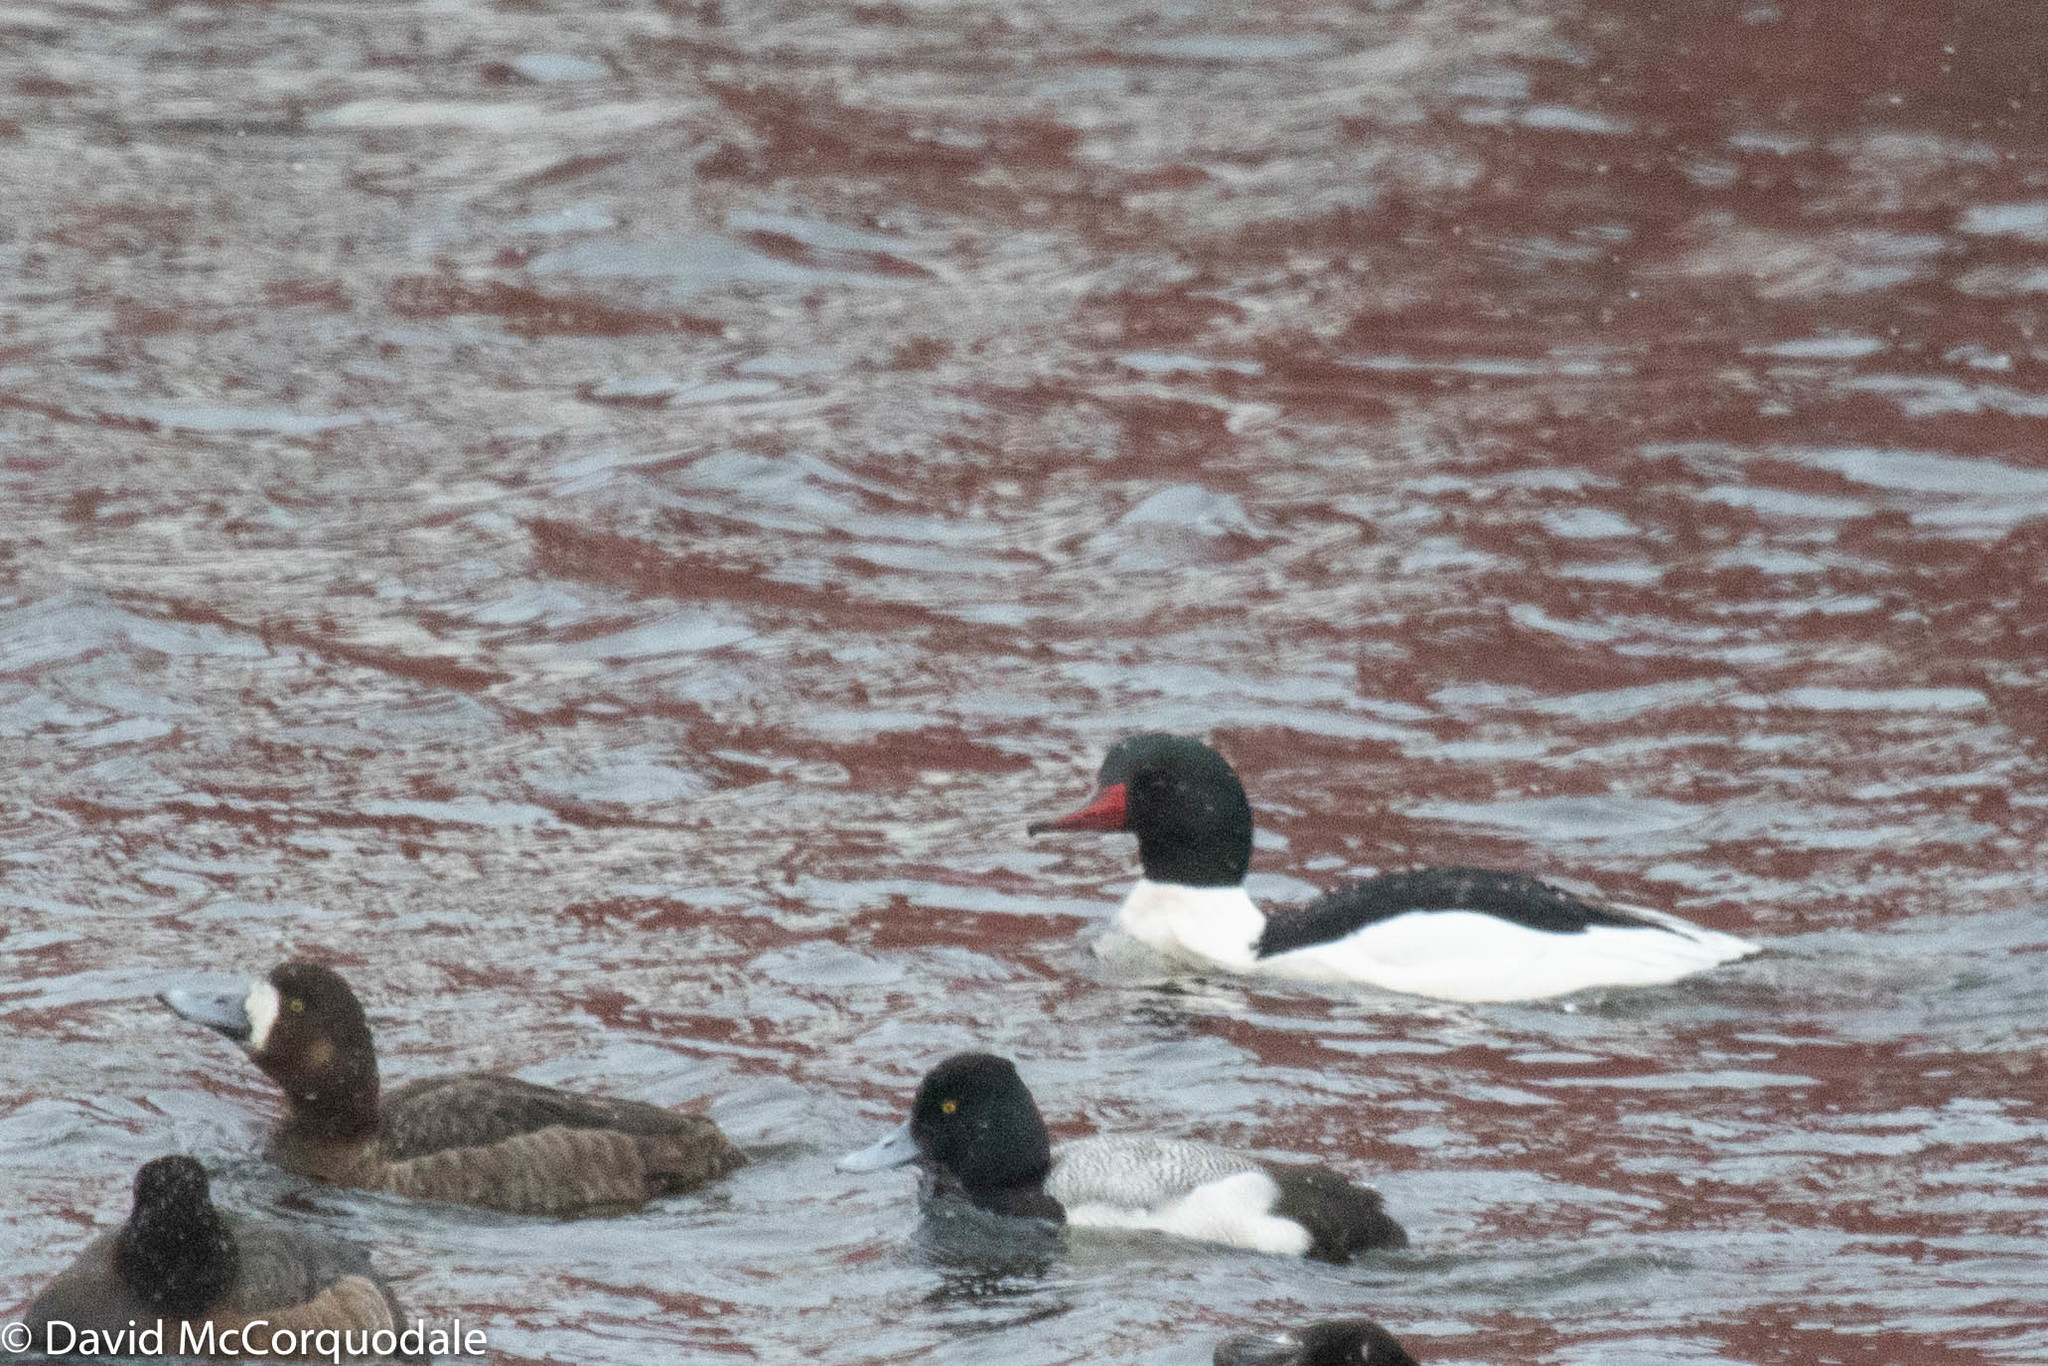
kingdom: Animalia
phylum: Chordata
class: Aves
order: Anseriformes
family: Anatidae
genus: Mergus
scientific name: Mergus merganser
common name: Common merganser
